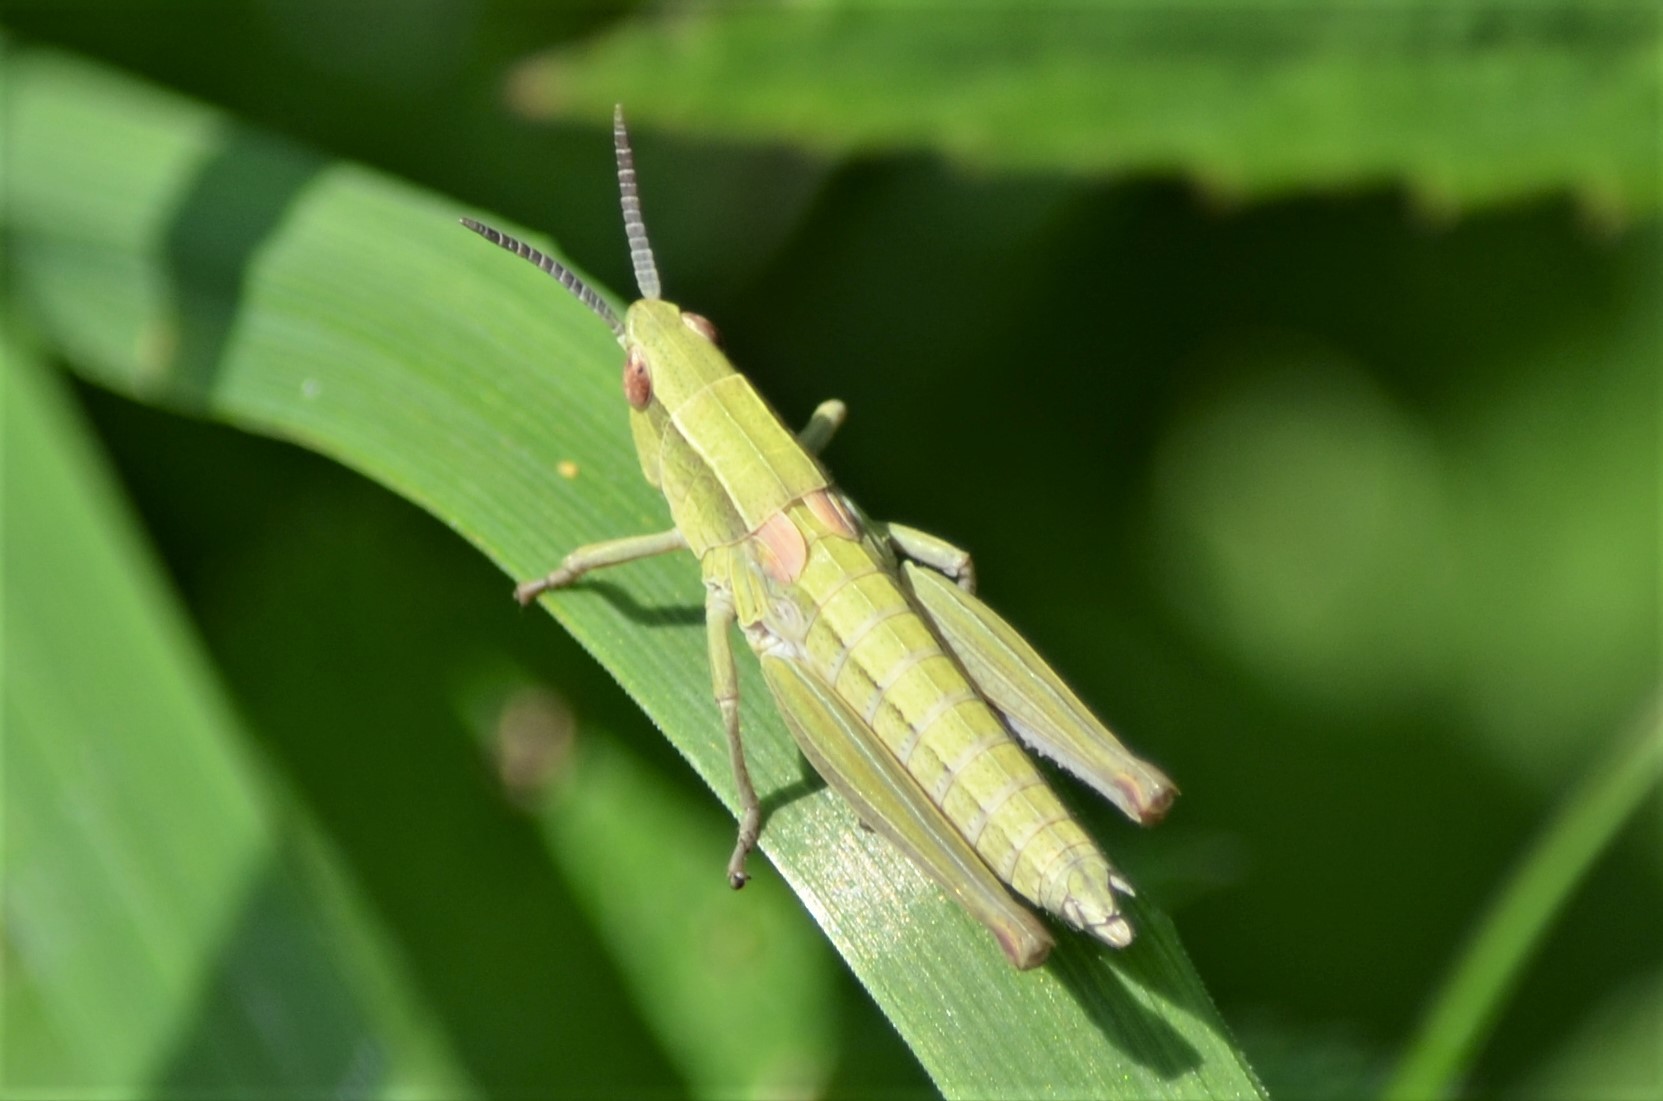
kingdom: Animalia
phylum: Arthropoda
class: Insecta
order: Orthoptera
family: Acrididae
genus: Euthystira
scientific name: Euthystira brachyptera
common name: Small gold grasshopper
